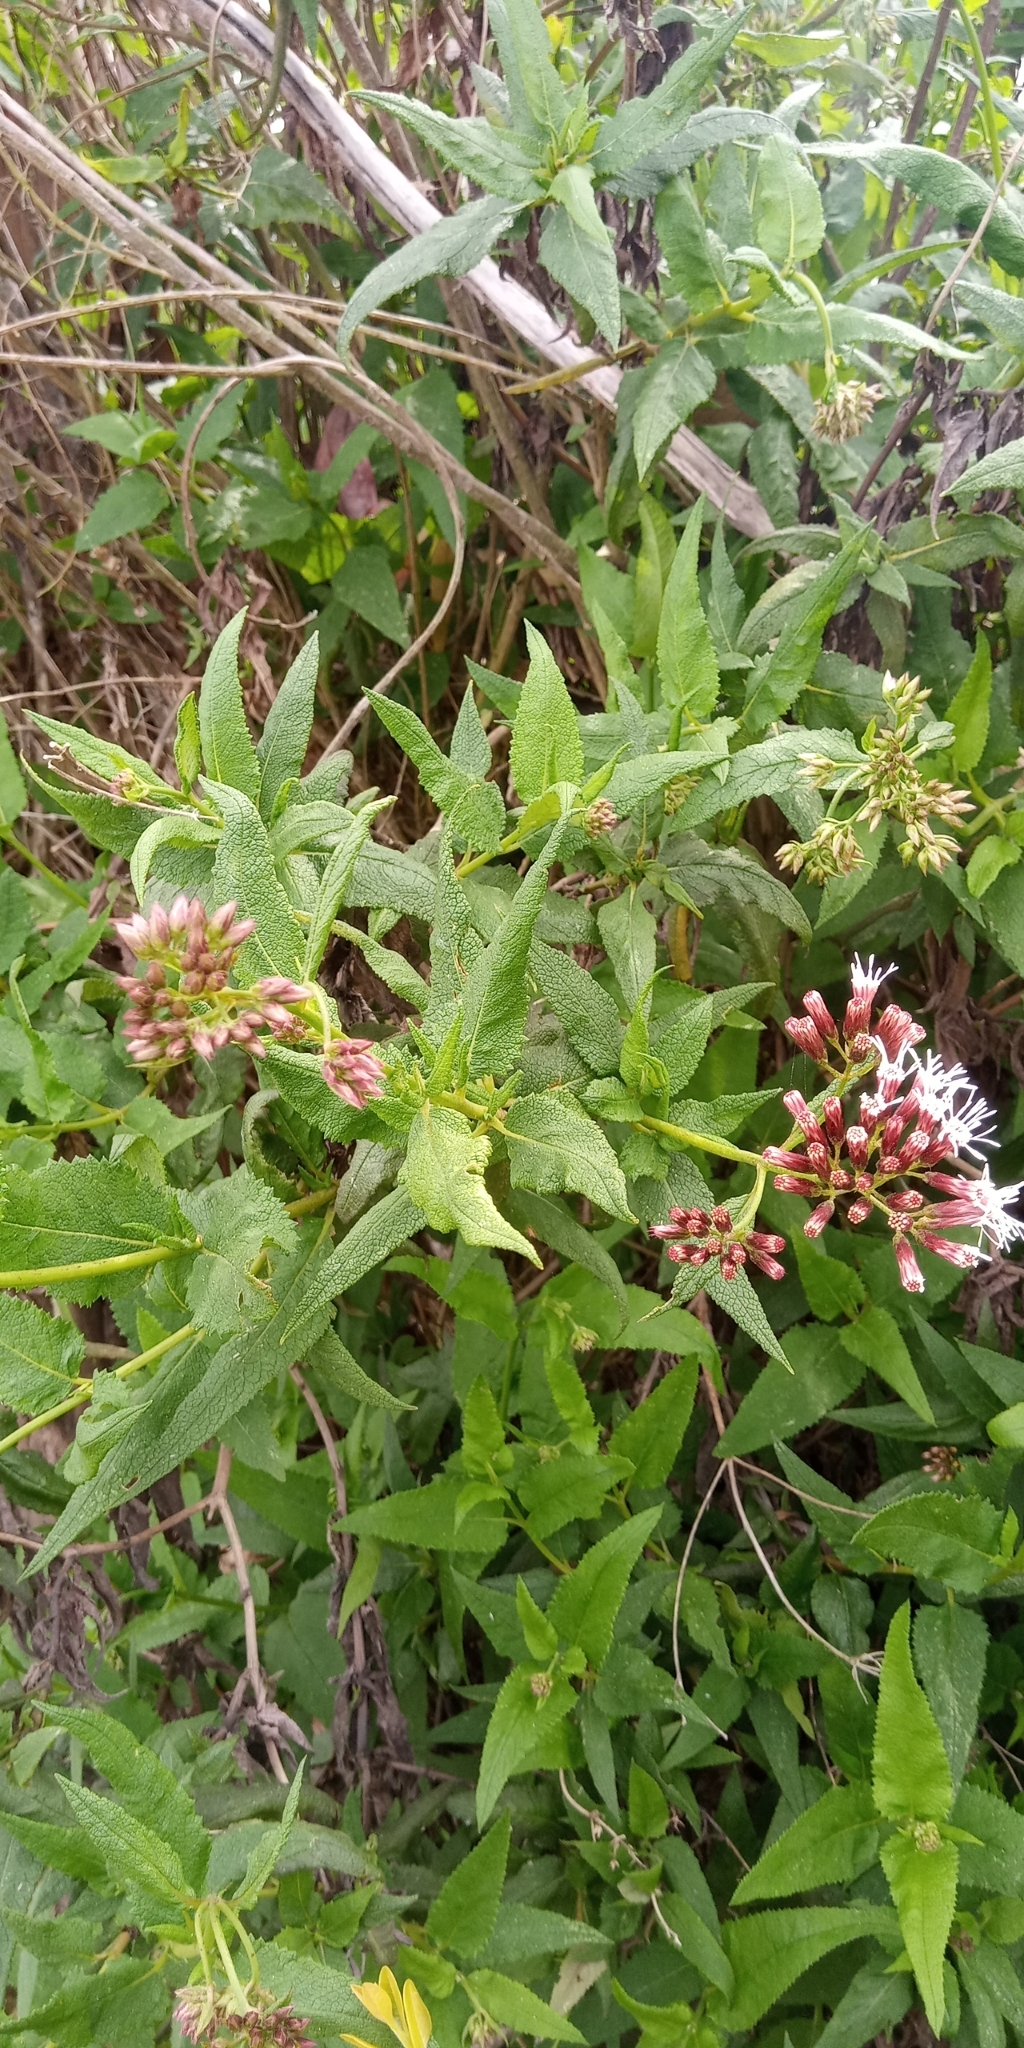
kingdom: Plantae
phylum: Tracheophyta
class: Magnoliopsida
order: Asterales
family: Asteraceae
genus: Aristeguietia
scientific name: Aristeguietia salvia
